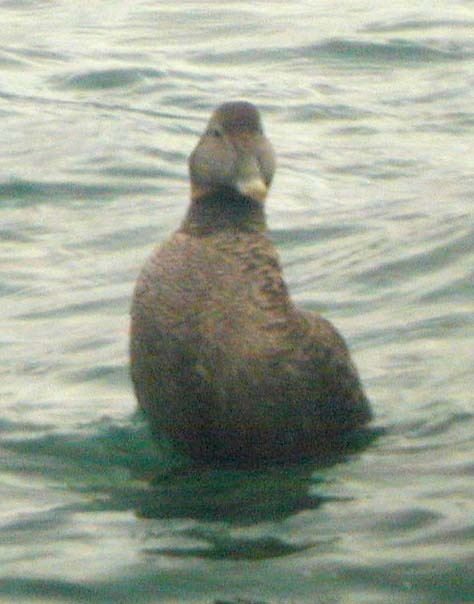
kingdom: Animalia
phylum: Chordata
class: Aves
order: Anseriformes
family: Anatidae
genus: Somateria
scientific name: Somateria mollissima
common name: Common eider
